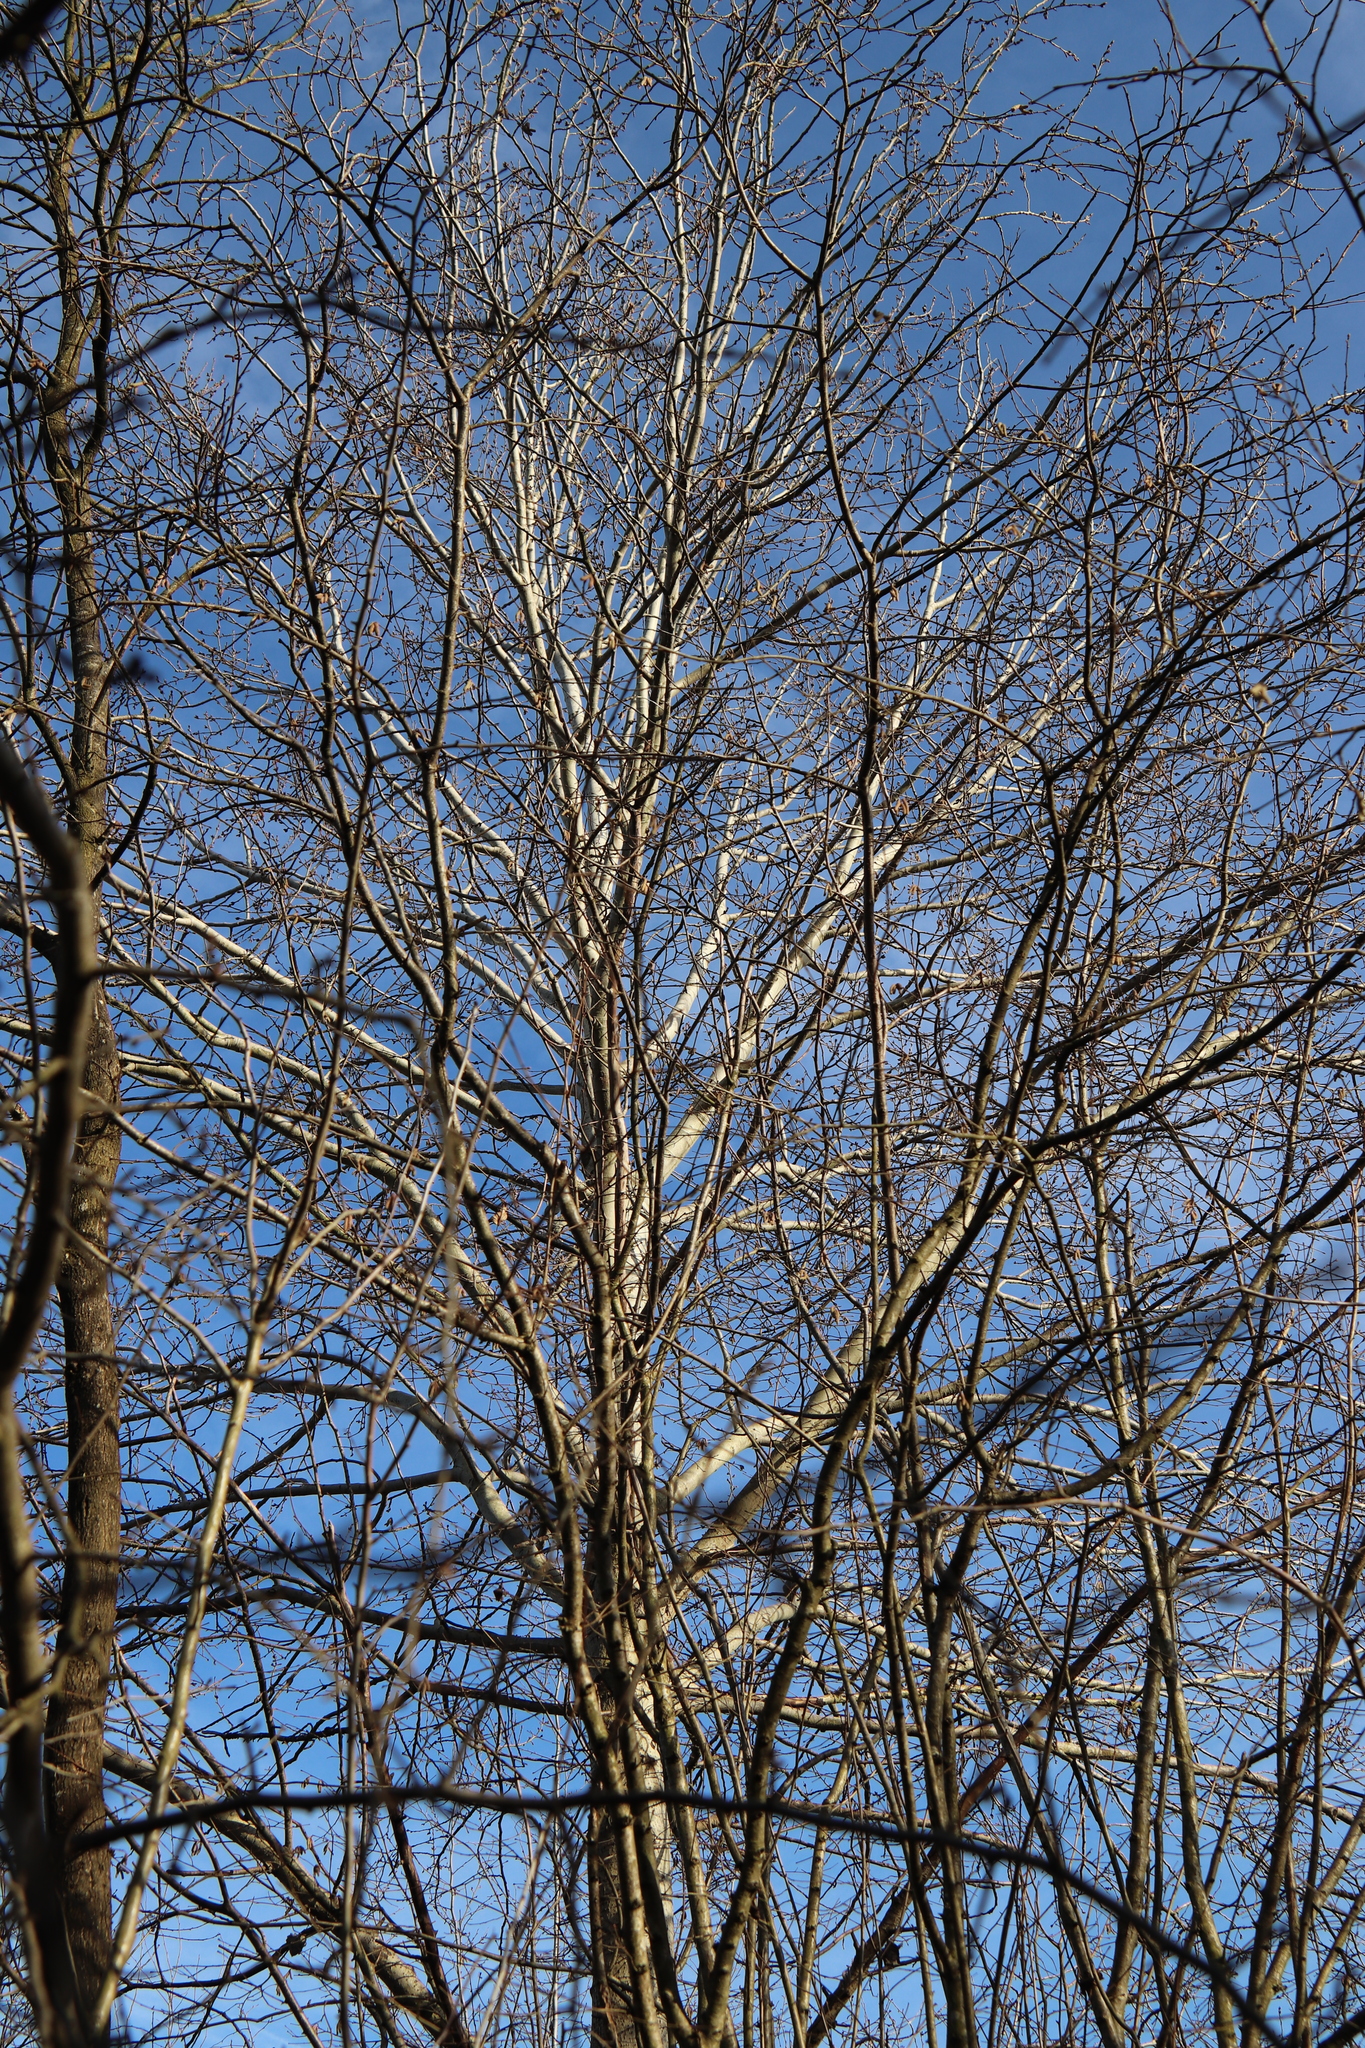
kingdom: Plantae
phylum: Tracheophyta
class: Magnoliopsida
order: Malpighiales
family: Salicaceae
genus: Populus
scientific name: Populus tremula
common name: European aspen
